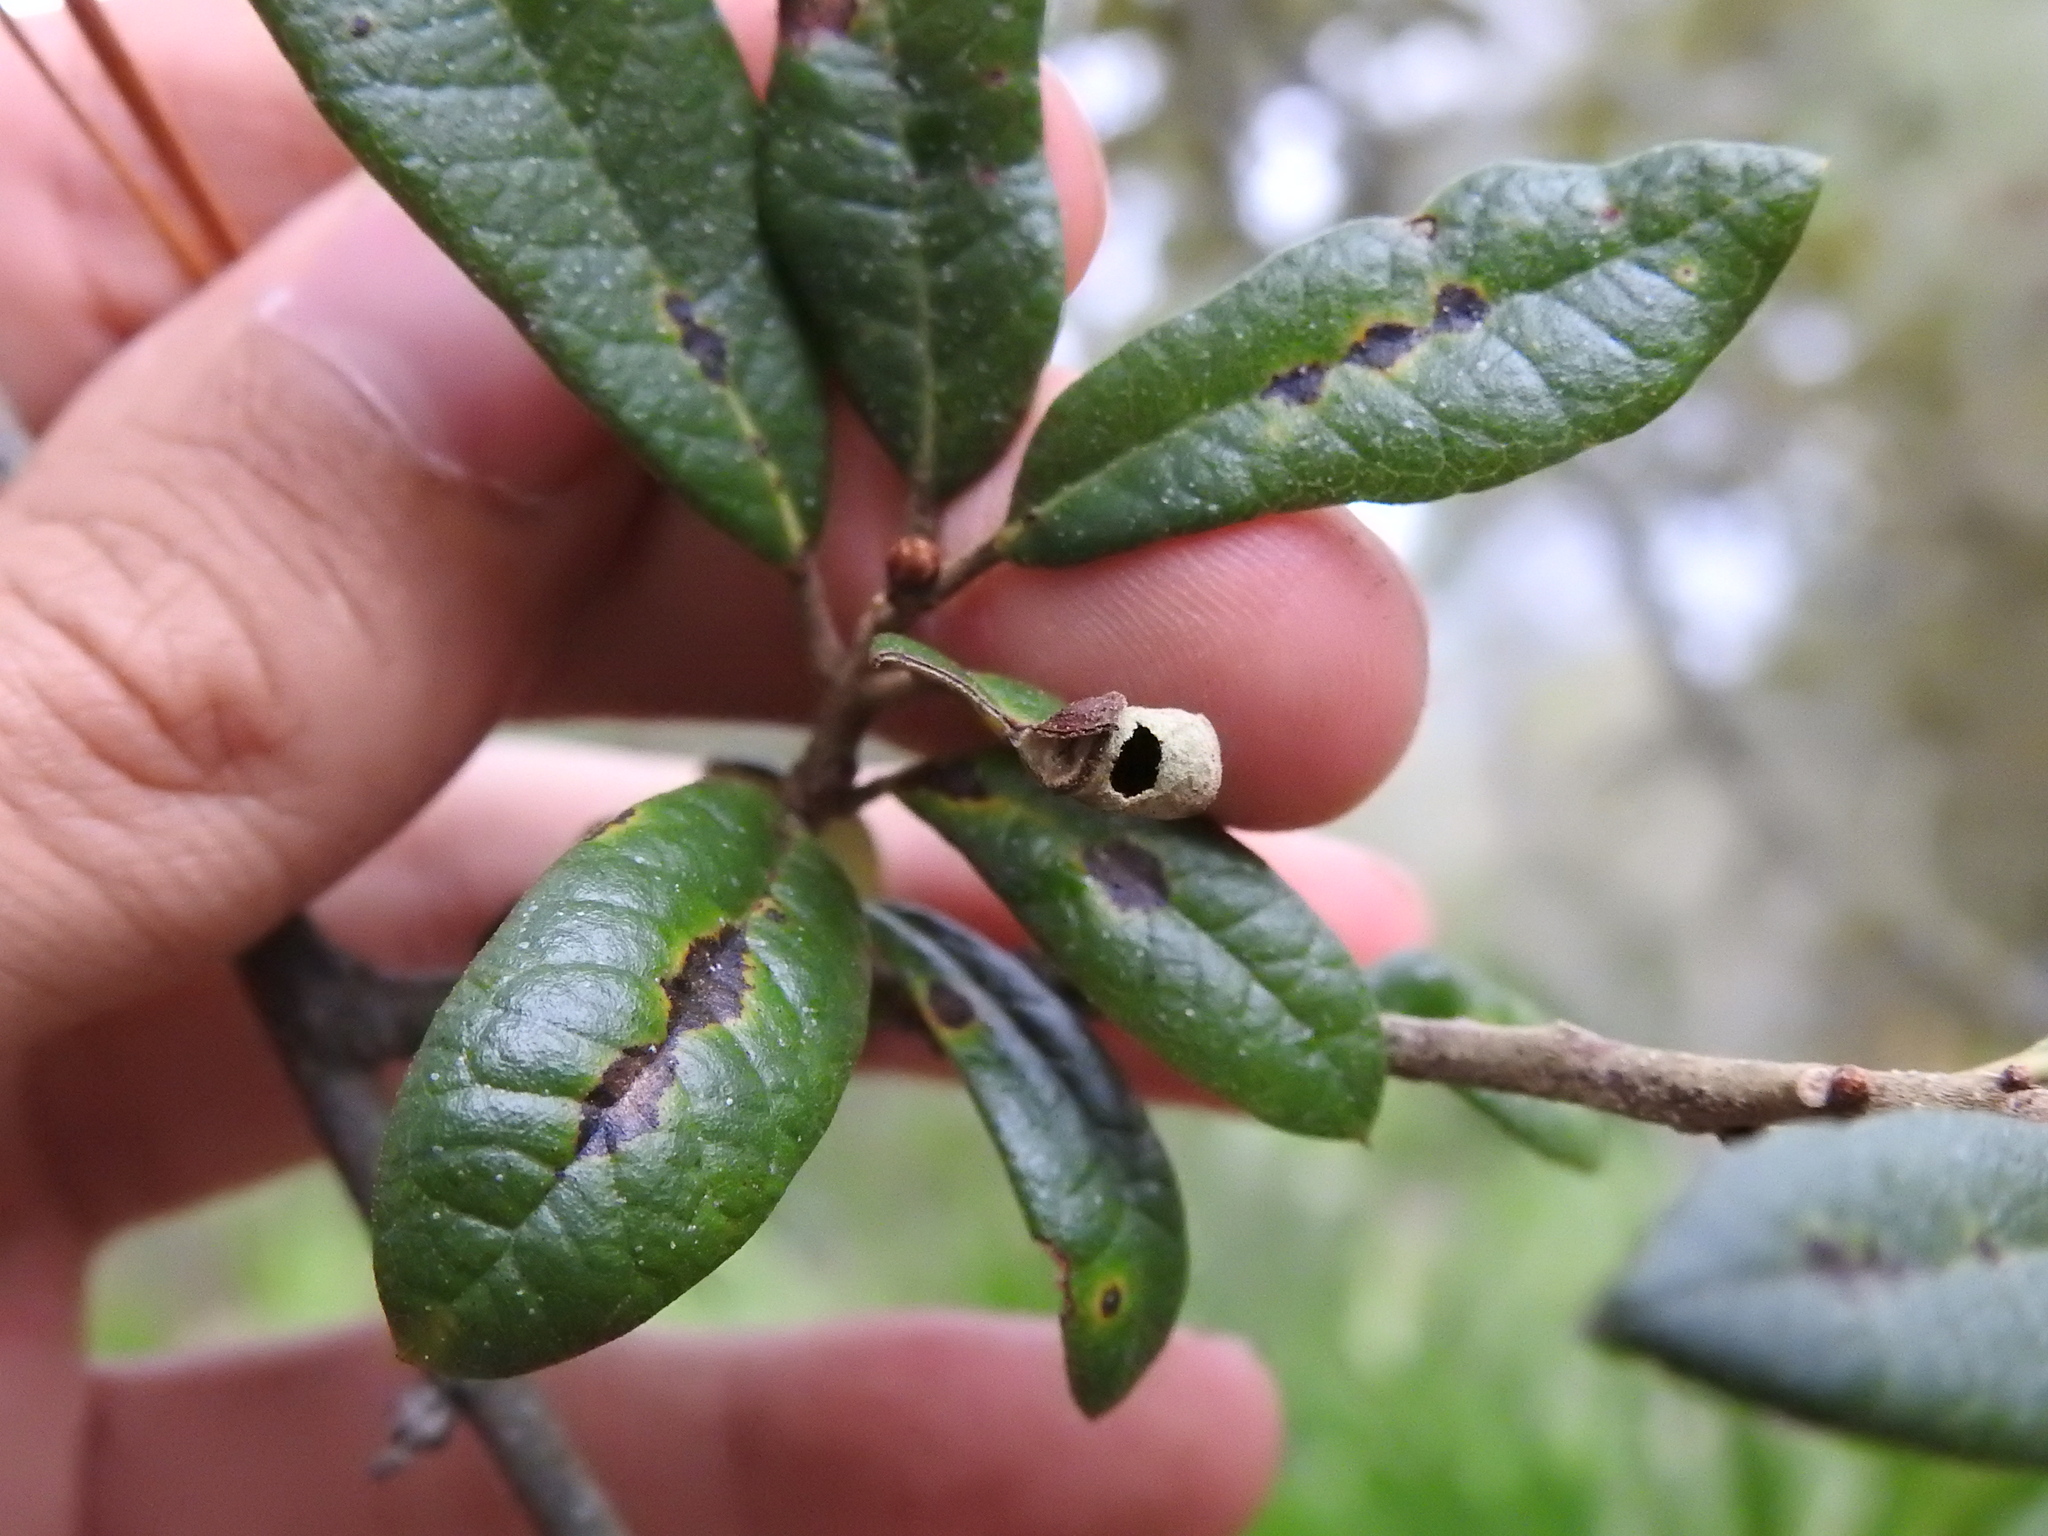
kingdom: Animalia
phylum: Arthropoda
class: Insecta
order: Coleoptera
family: Attelabidae
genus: Homoeolabus
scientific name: Homoeolabus analis
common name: Oak leaf rolling weevil
